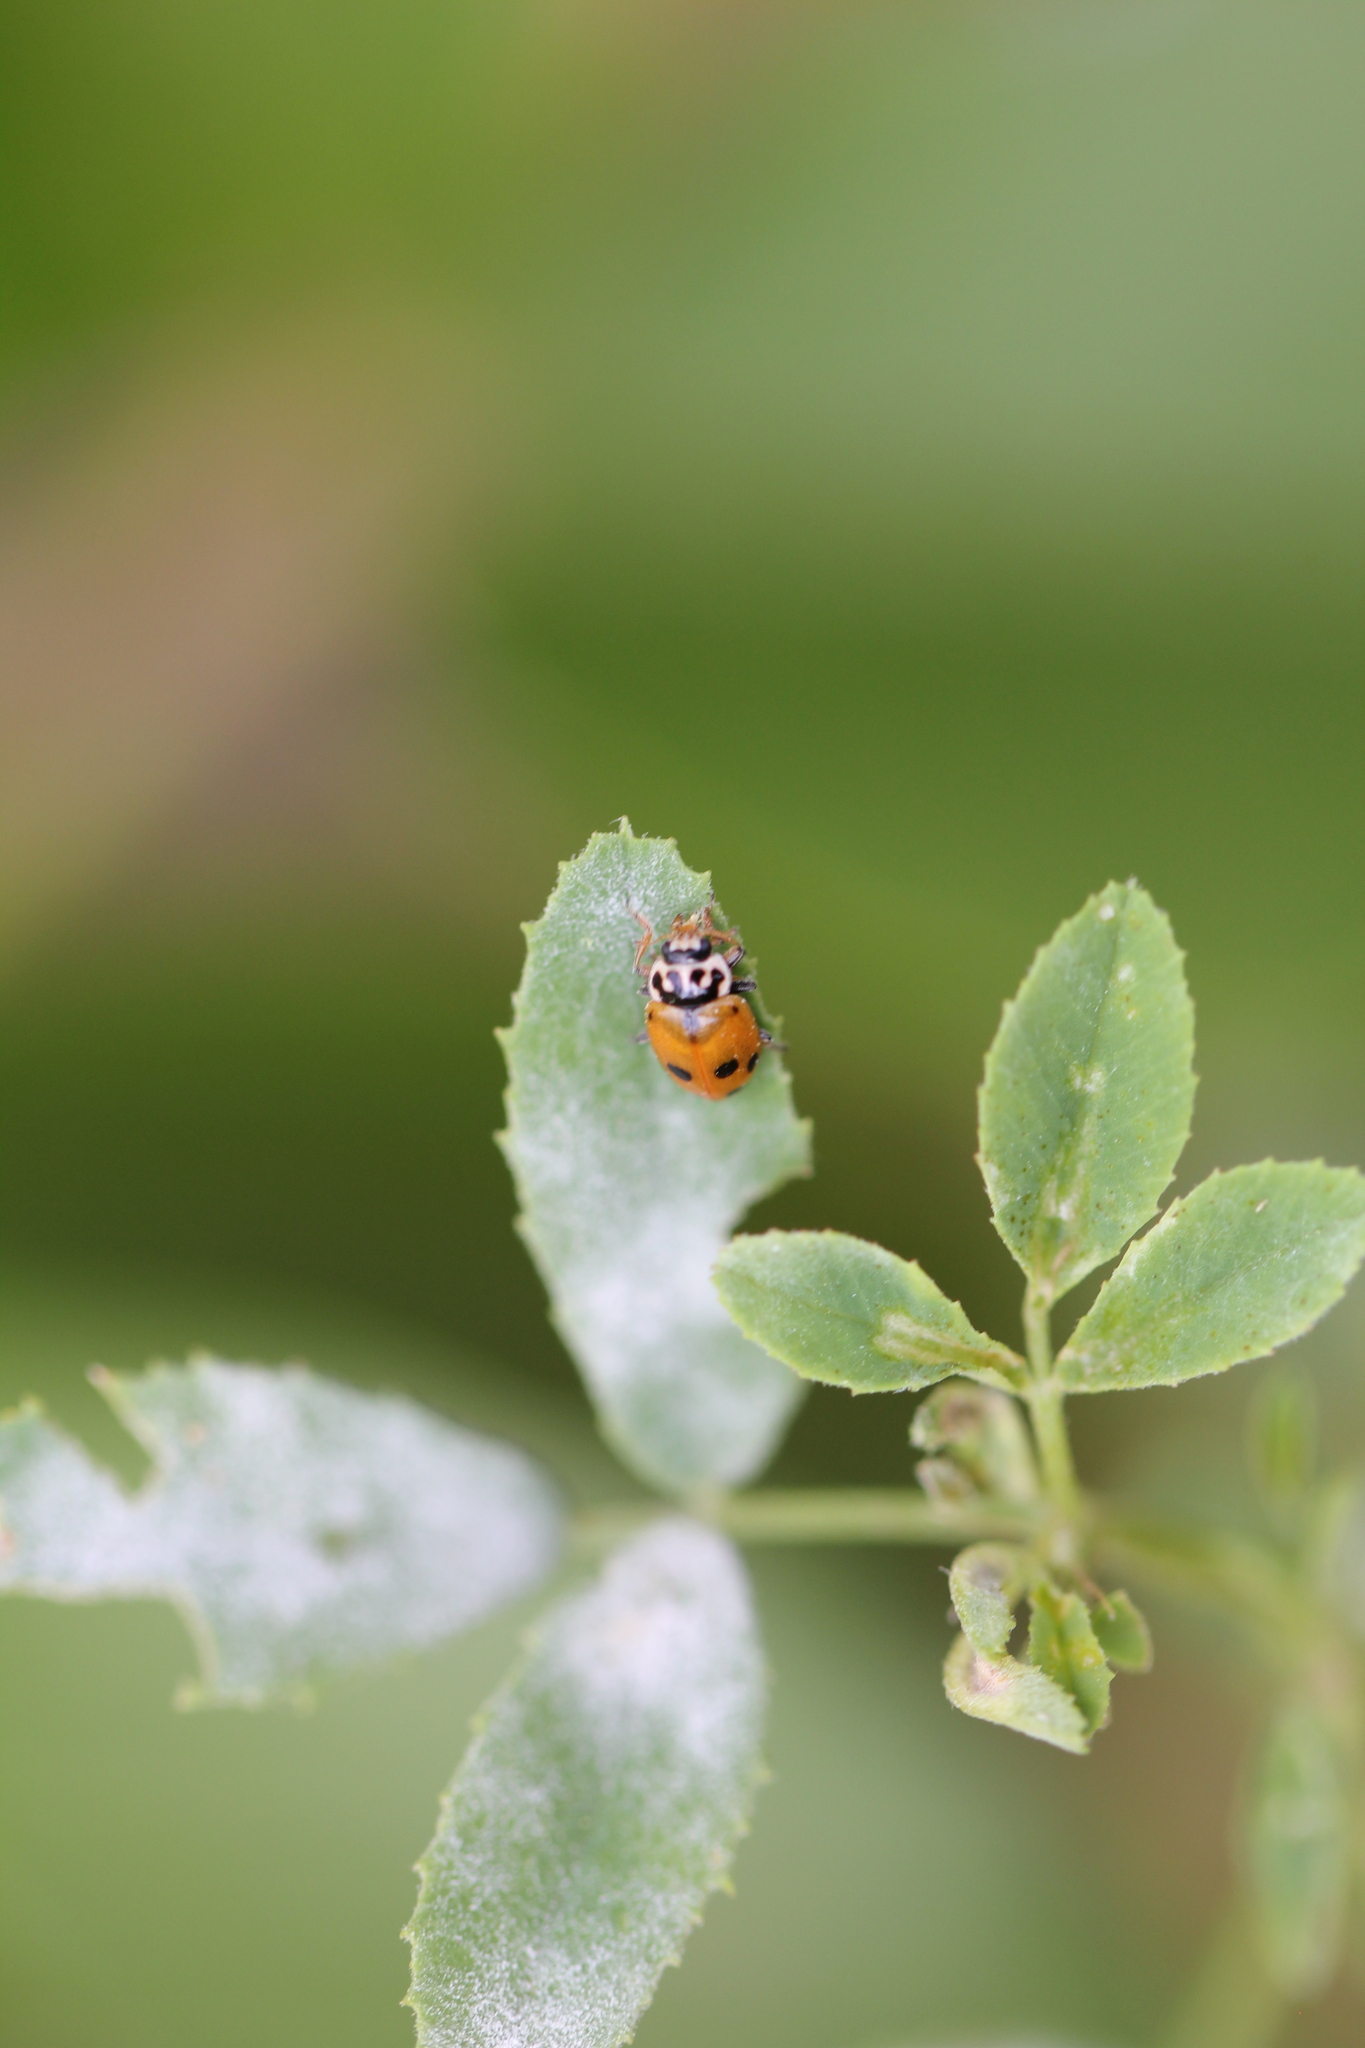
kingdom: Animalia
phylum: Arthropoda
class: Insecta
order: Coleoptera
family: Coccinellidae
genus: Hippodamia
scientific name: Hippodamia variegata
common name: Ladybird beetle
